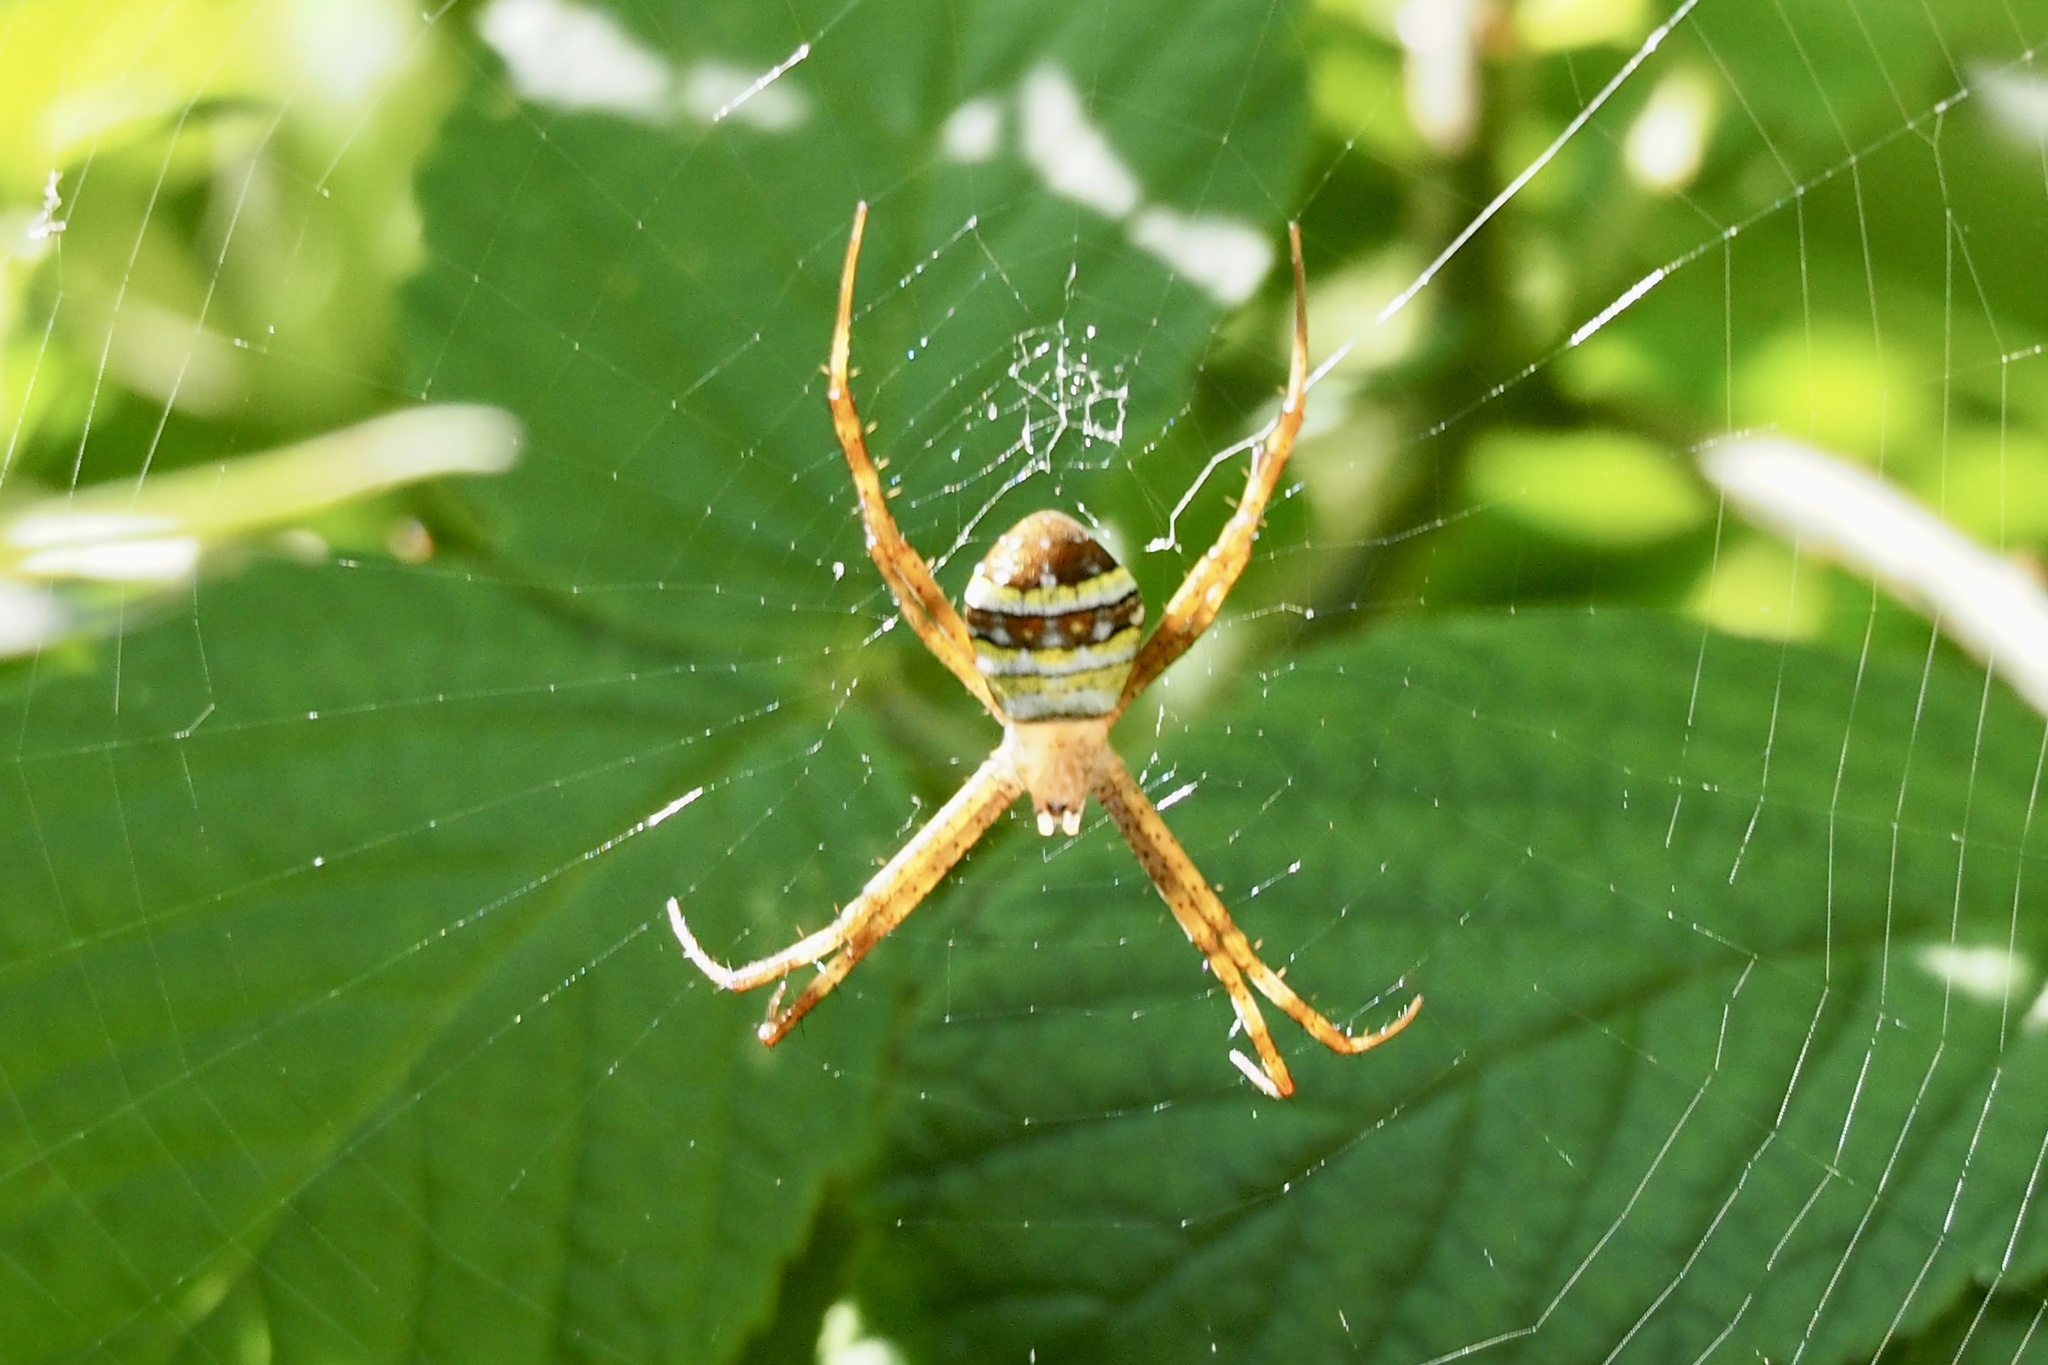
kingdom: Animalia
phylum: Arthropoda
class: Arachnida
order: Araneae
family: Araneidae
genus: Argiope
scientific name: Argiope minuta
